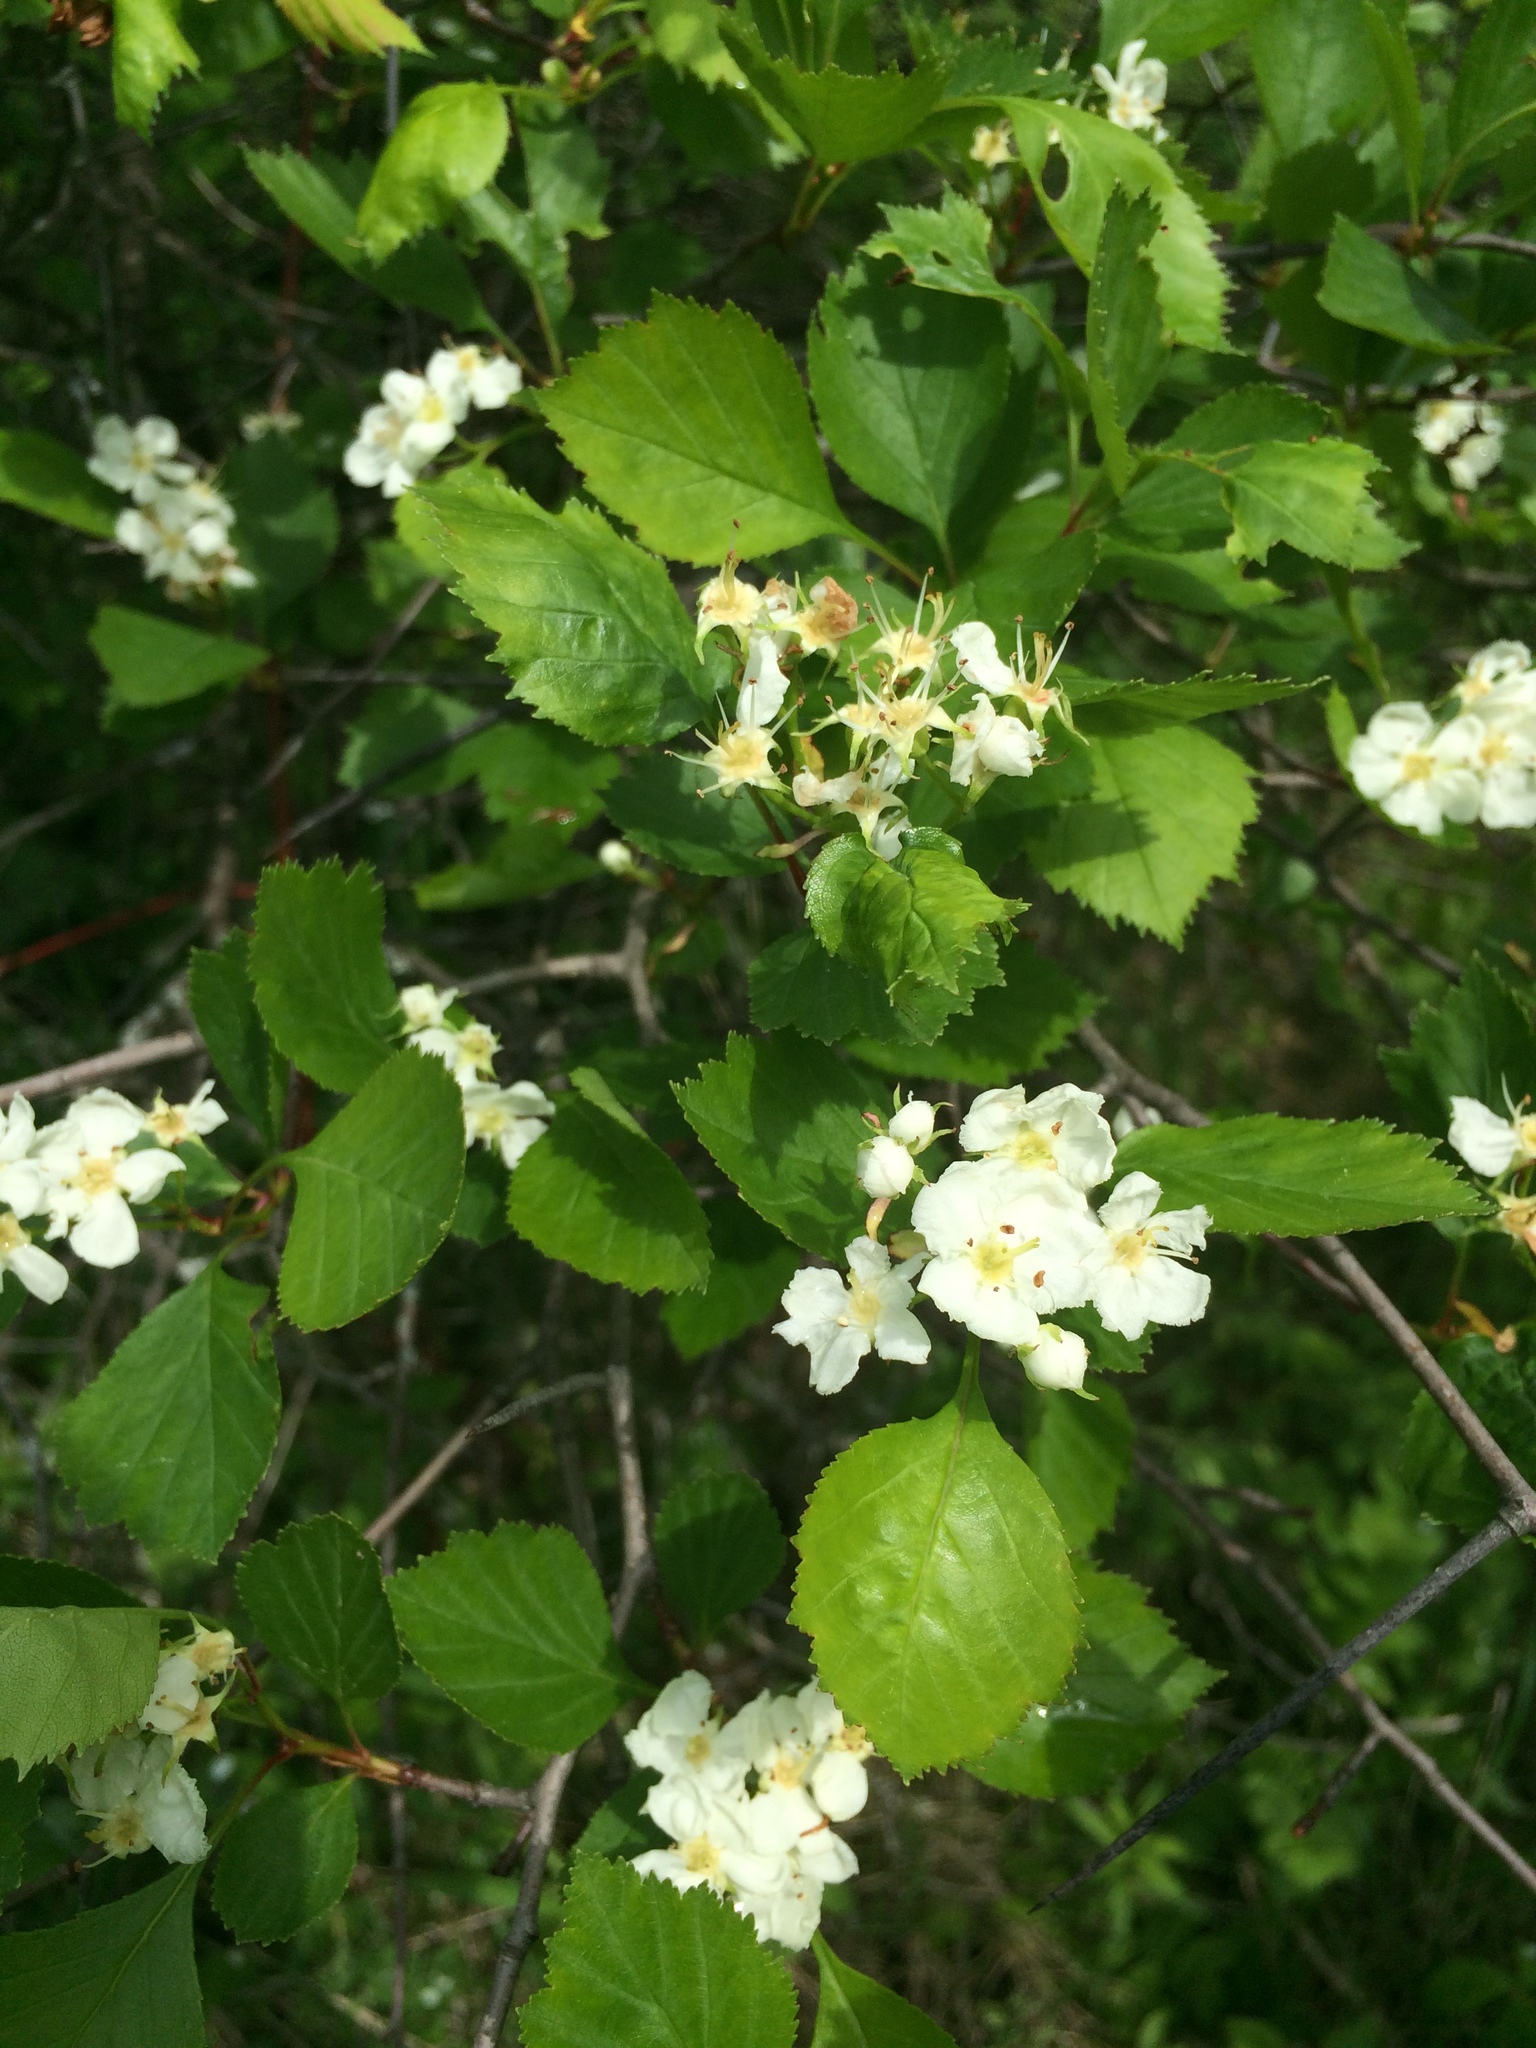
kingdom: Plantae
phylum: Tracheophyta
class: Magnoliopsida
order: Rosales
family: Rosaceae
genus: Crataegus
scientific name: Crataegus chrysocarpa
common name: Fire-berry hawthorn
